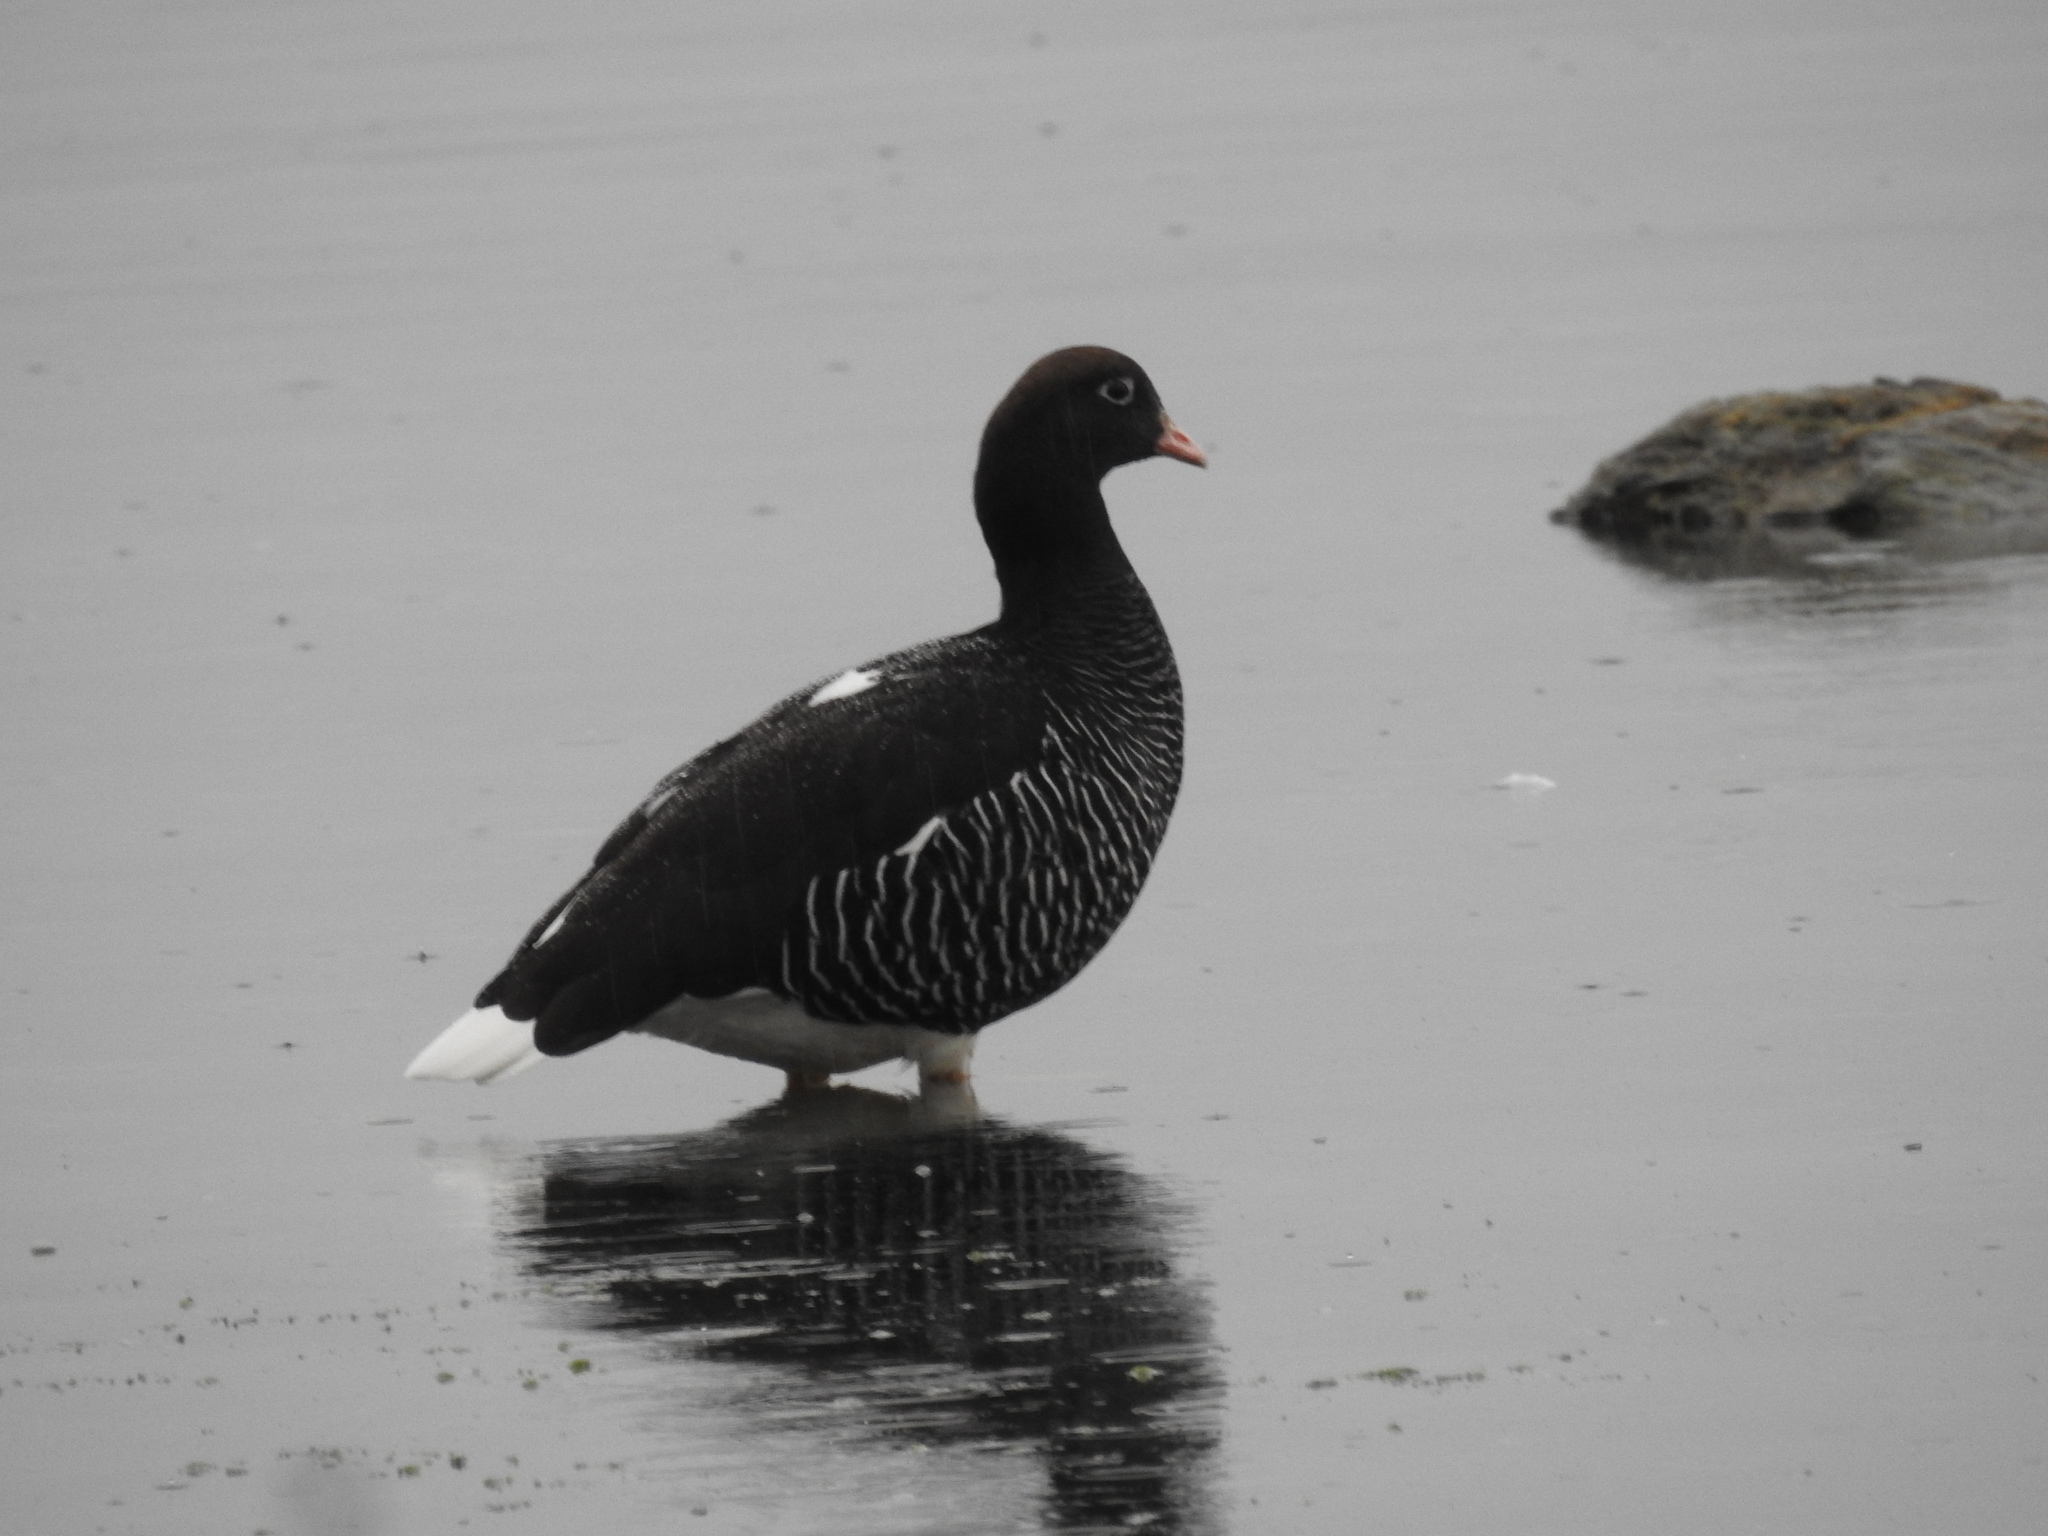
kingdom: Animalia
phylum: Chordata
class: Aves
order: Anseriformes
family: Anatidae
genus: Chloephaga
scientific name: Chloephaga hybrida
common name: Kelp goose
